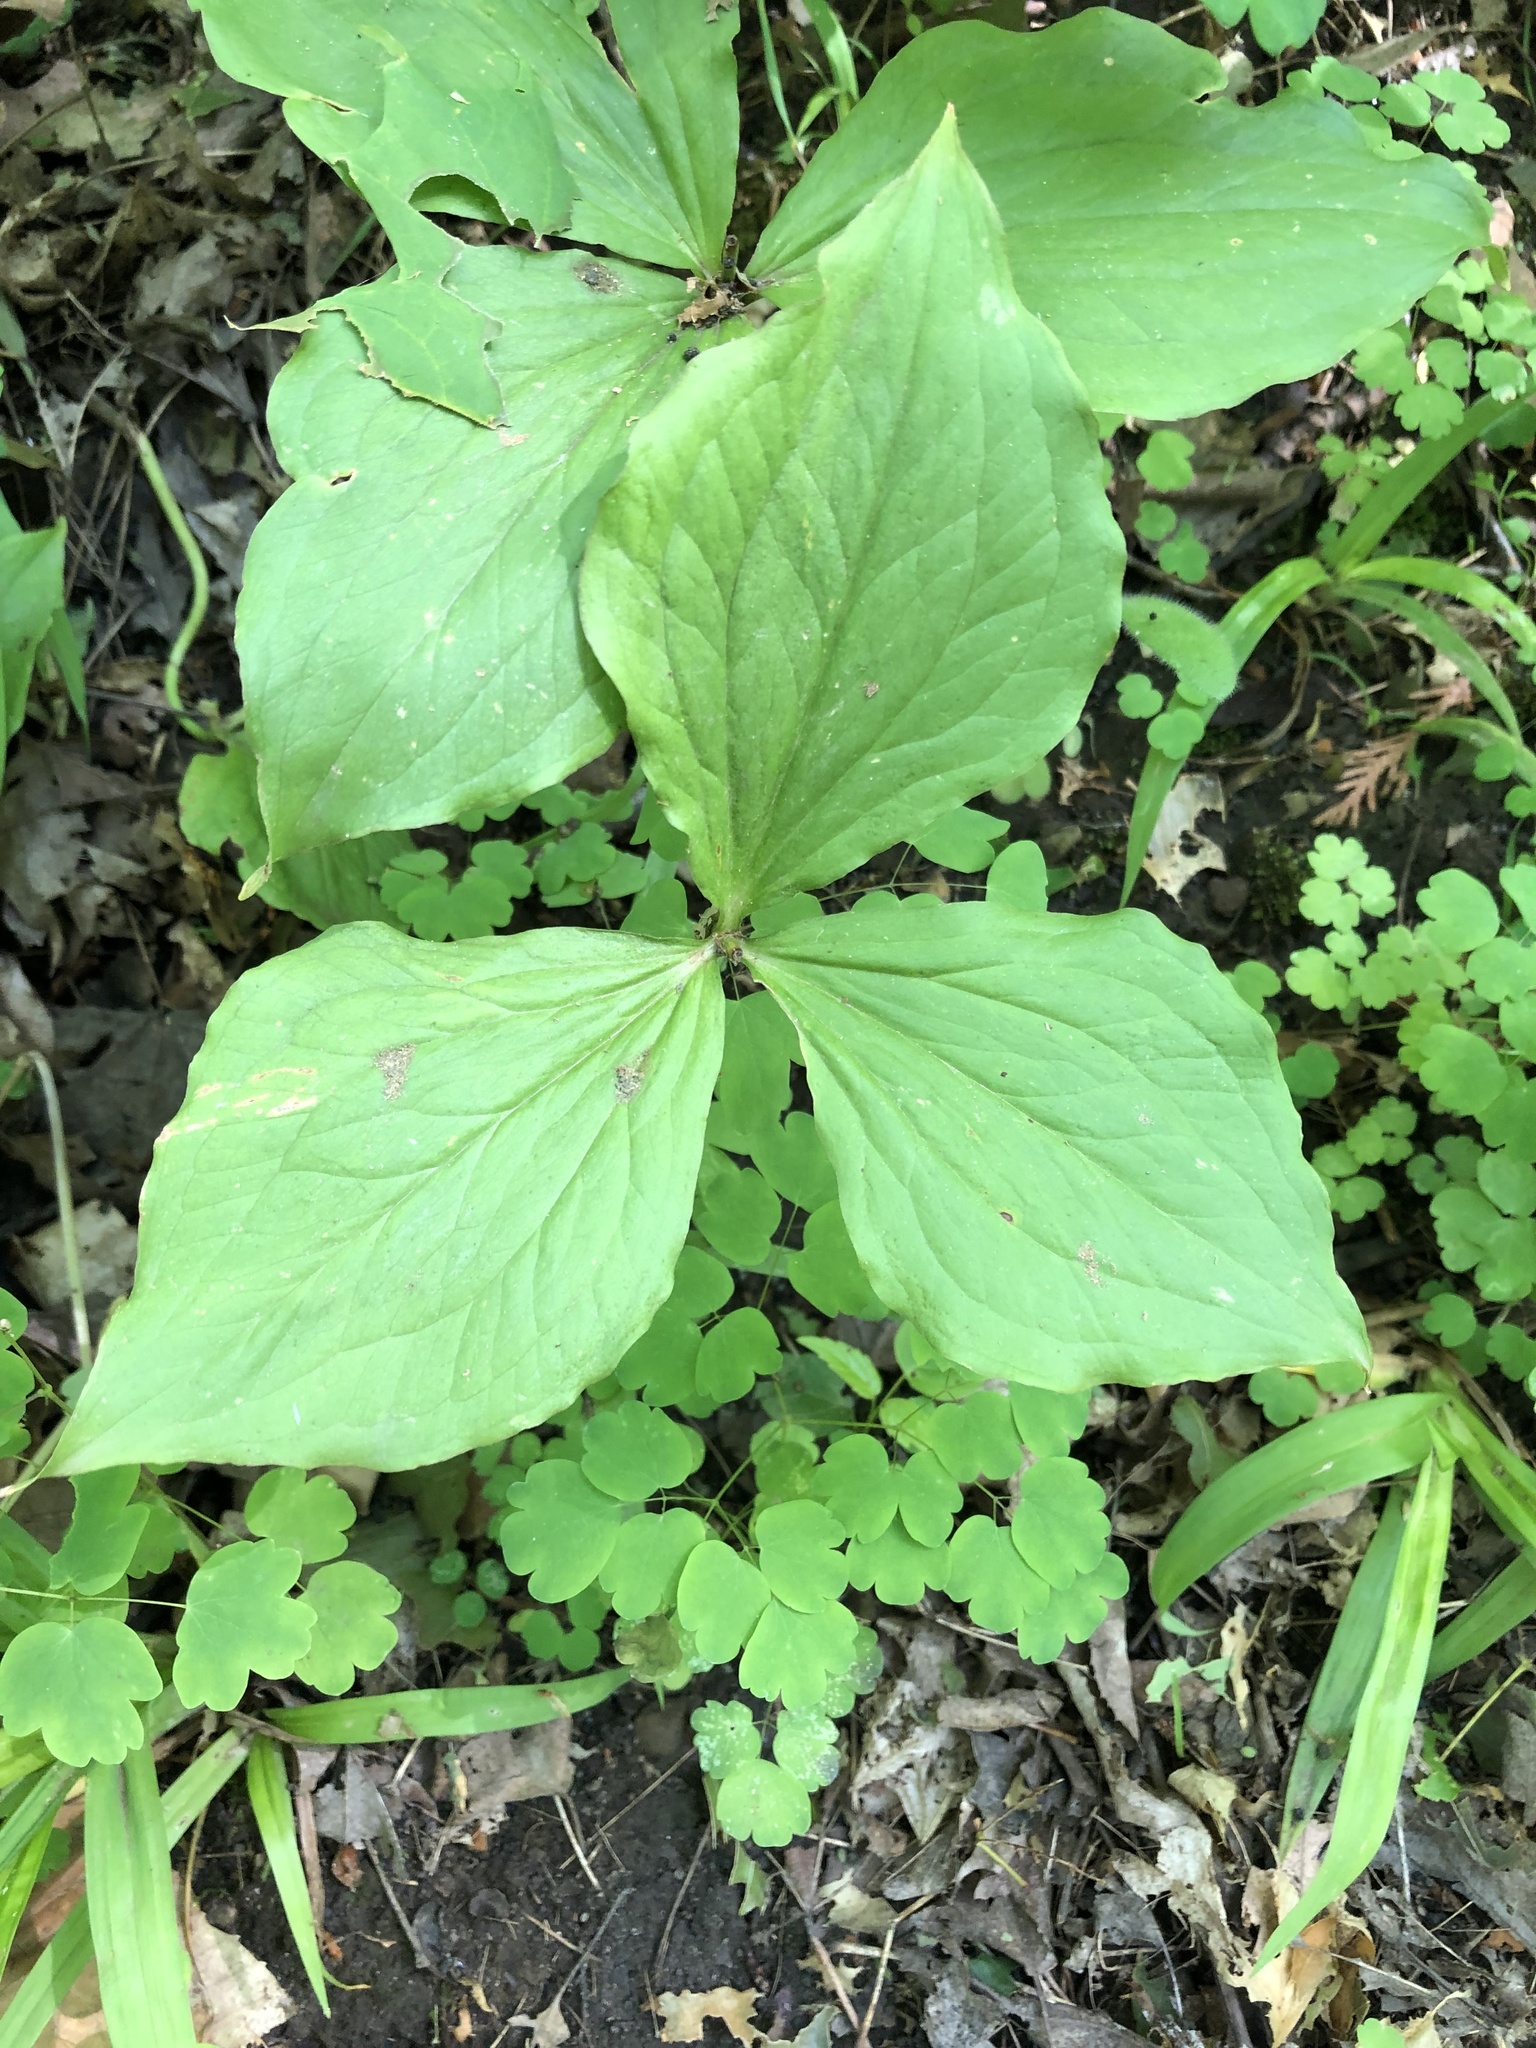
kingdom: Plantae
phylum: Tracheophyta
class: Liliopsida
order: Liliales
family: Melanthiaceae
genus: Trillium
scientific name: Trillium grandiflorum
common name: Great white trillium
